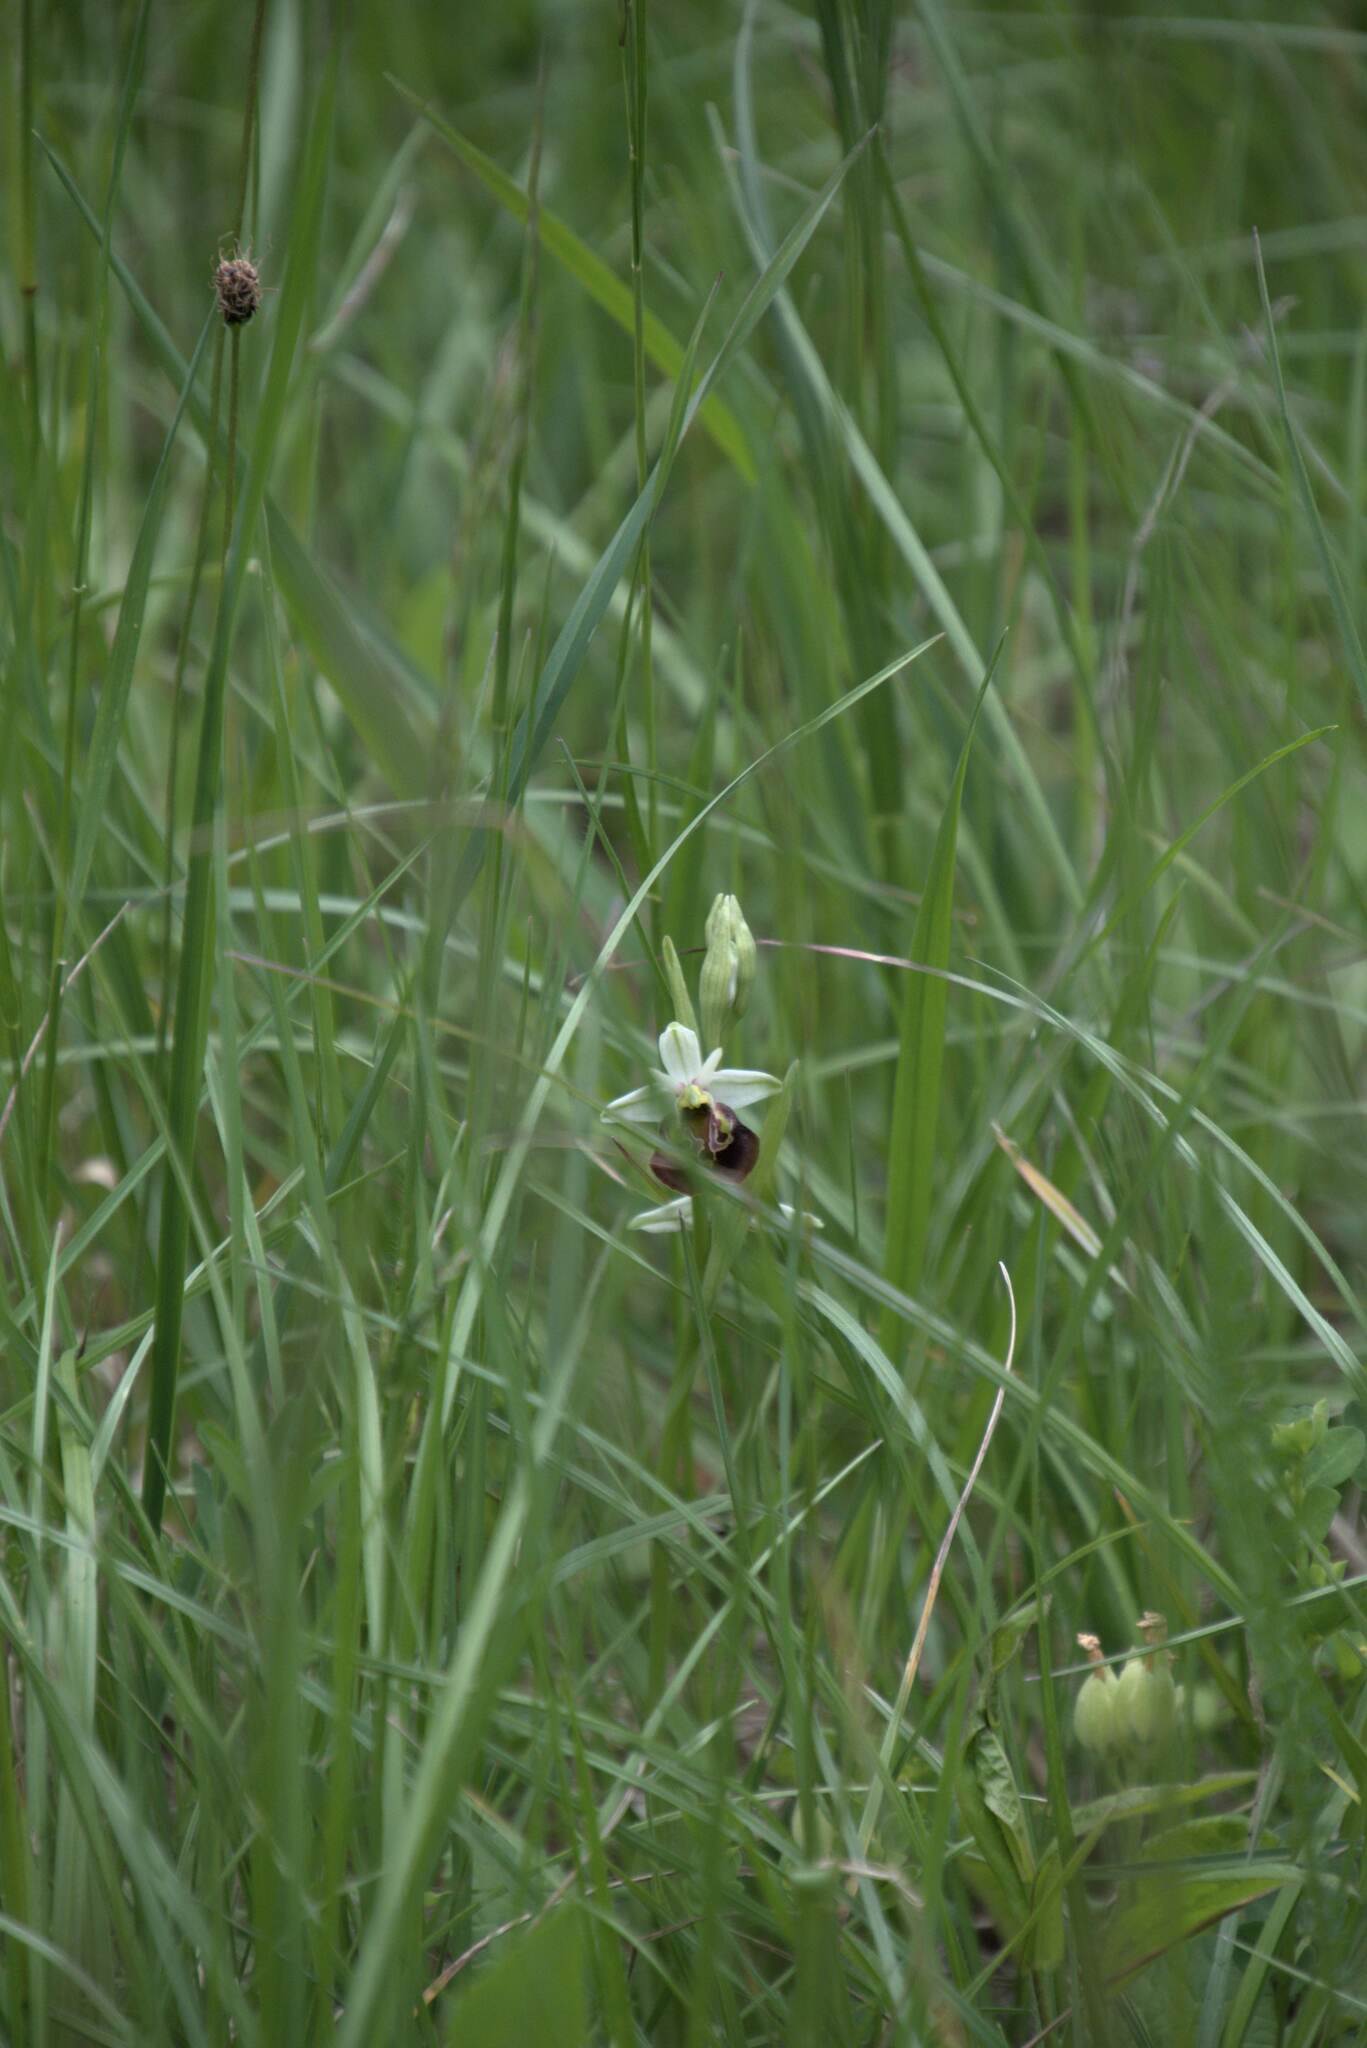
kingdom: Plantae
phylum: Tracheophyta
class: Liliopsida
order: Asparagales
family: Orchidaceae
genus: Ophrys
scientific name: Ophrys holosericea
